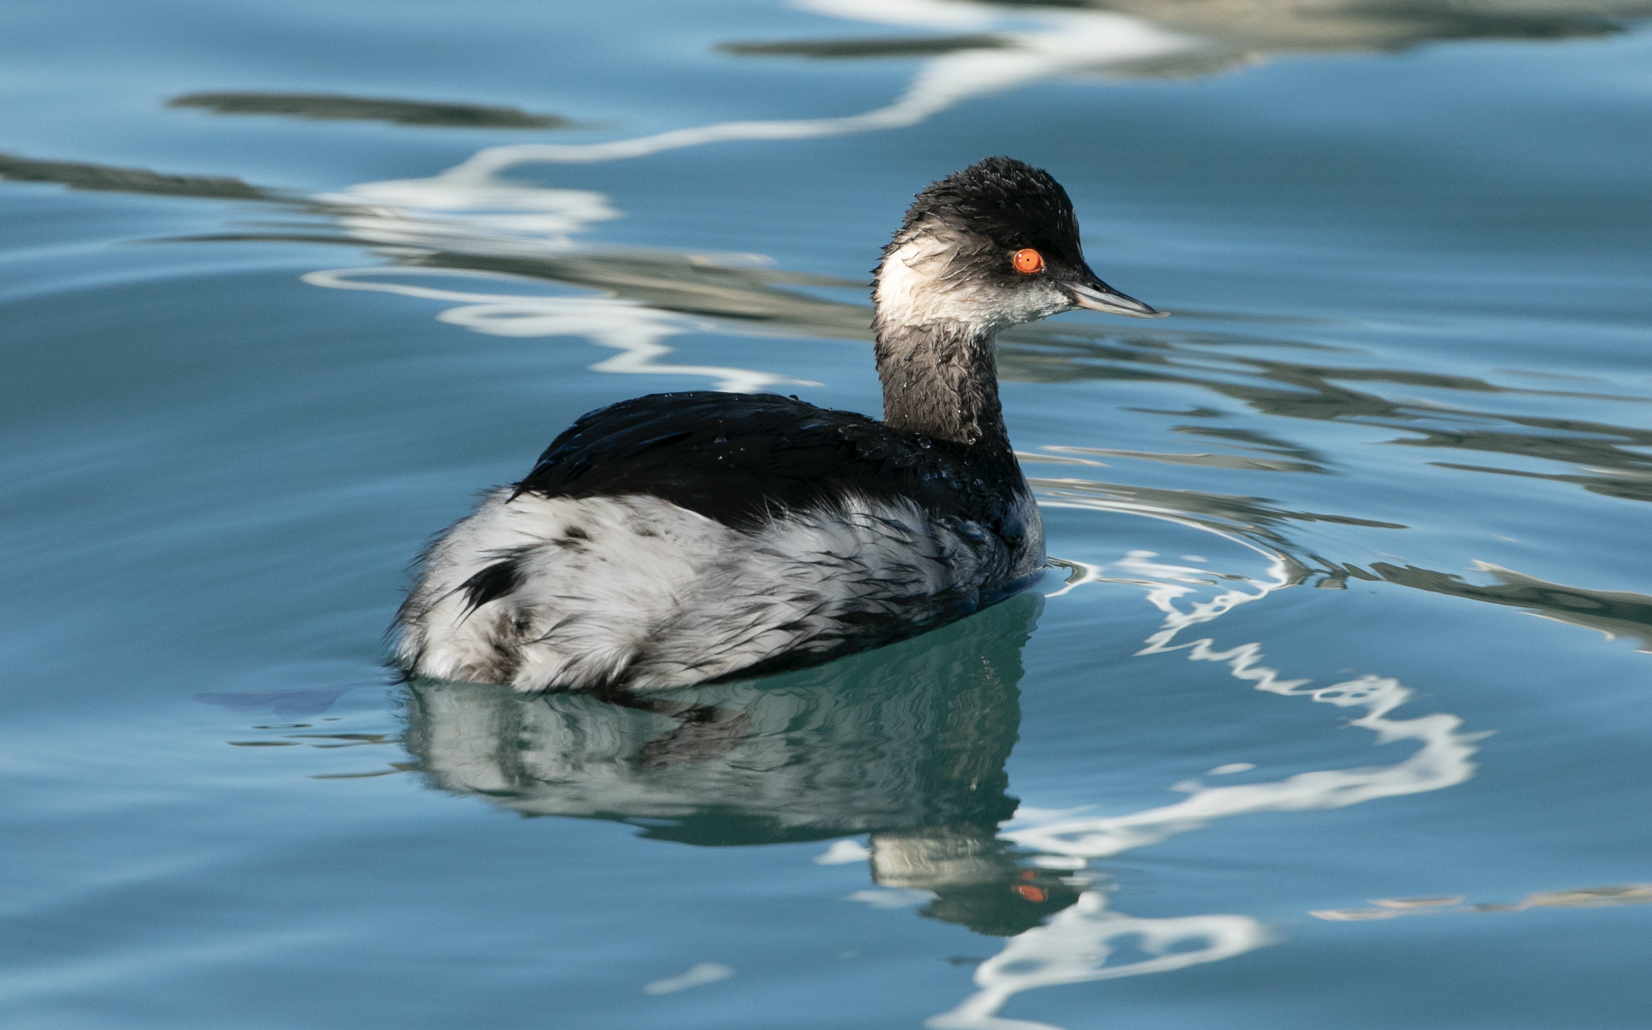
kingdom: Animalia
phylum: Chordata
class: Aves
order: Podicipediformes
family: Podicipedidae
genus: Podiceps
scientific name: Podiceps nigricollis
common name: Black-necked grebe
